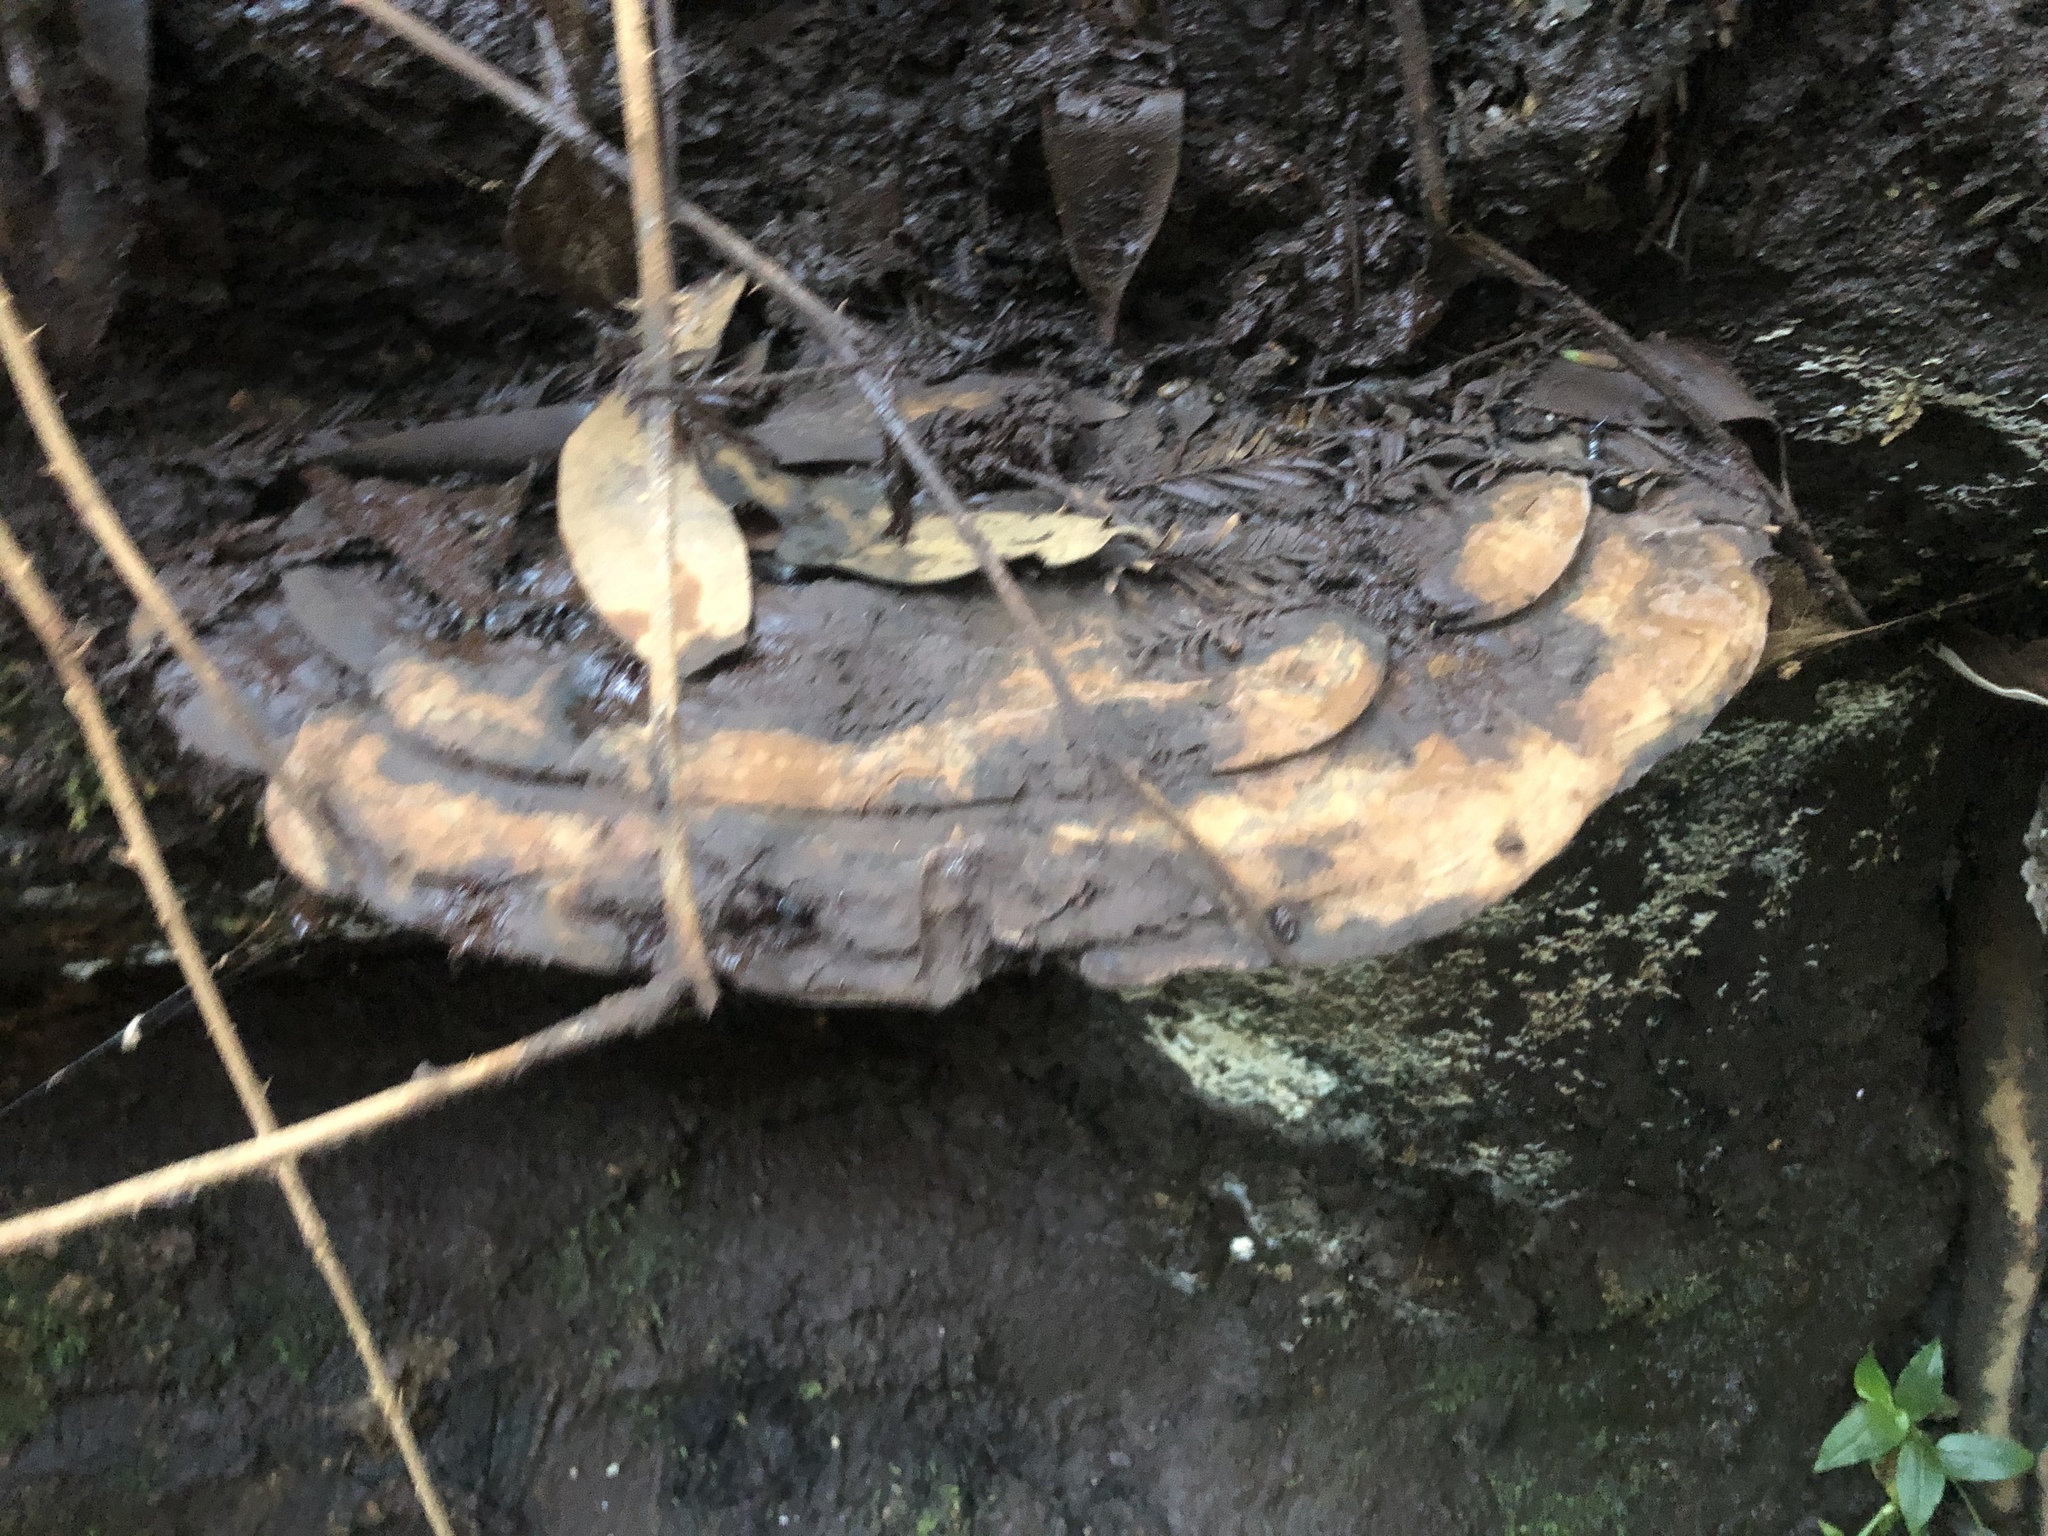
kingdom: Fungi
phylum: Basidiomycota
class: Agaricomycetes
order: Polyporales
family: Polyporaceae
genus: Ganoderma
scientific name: Ganoderma brownii
